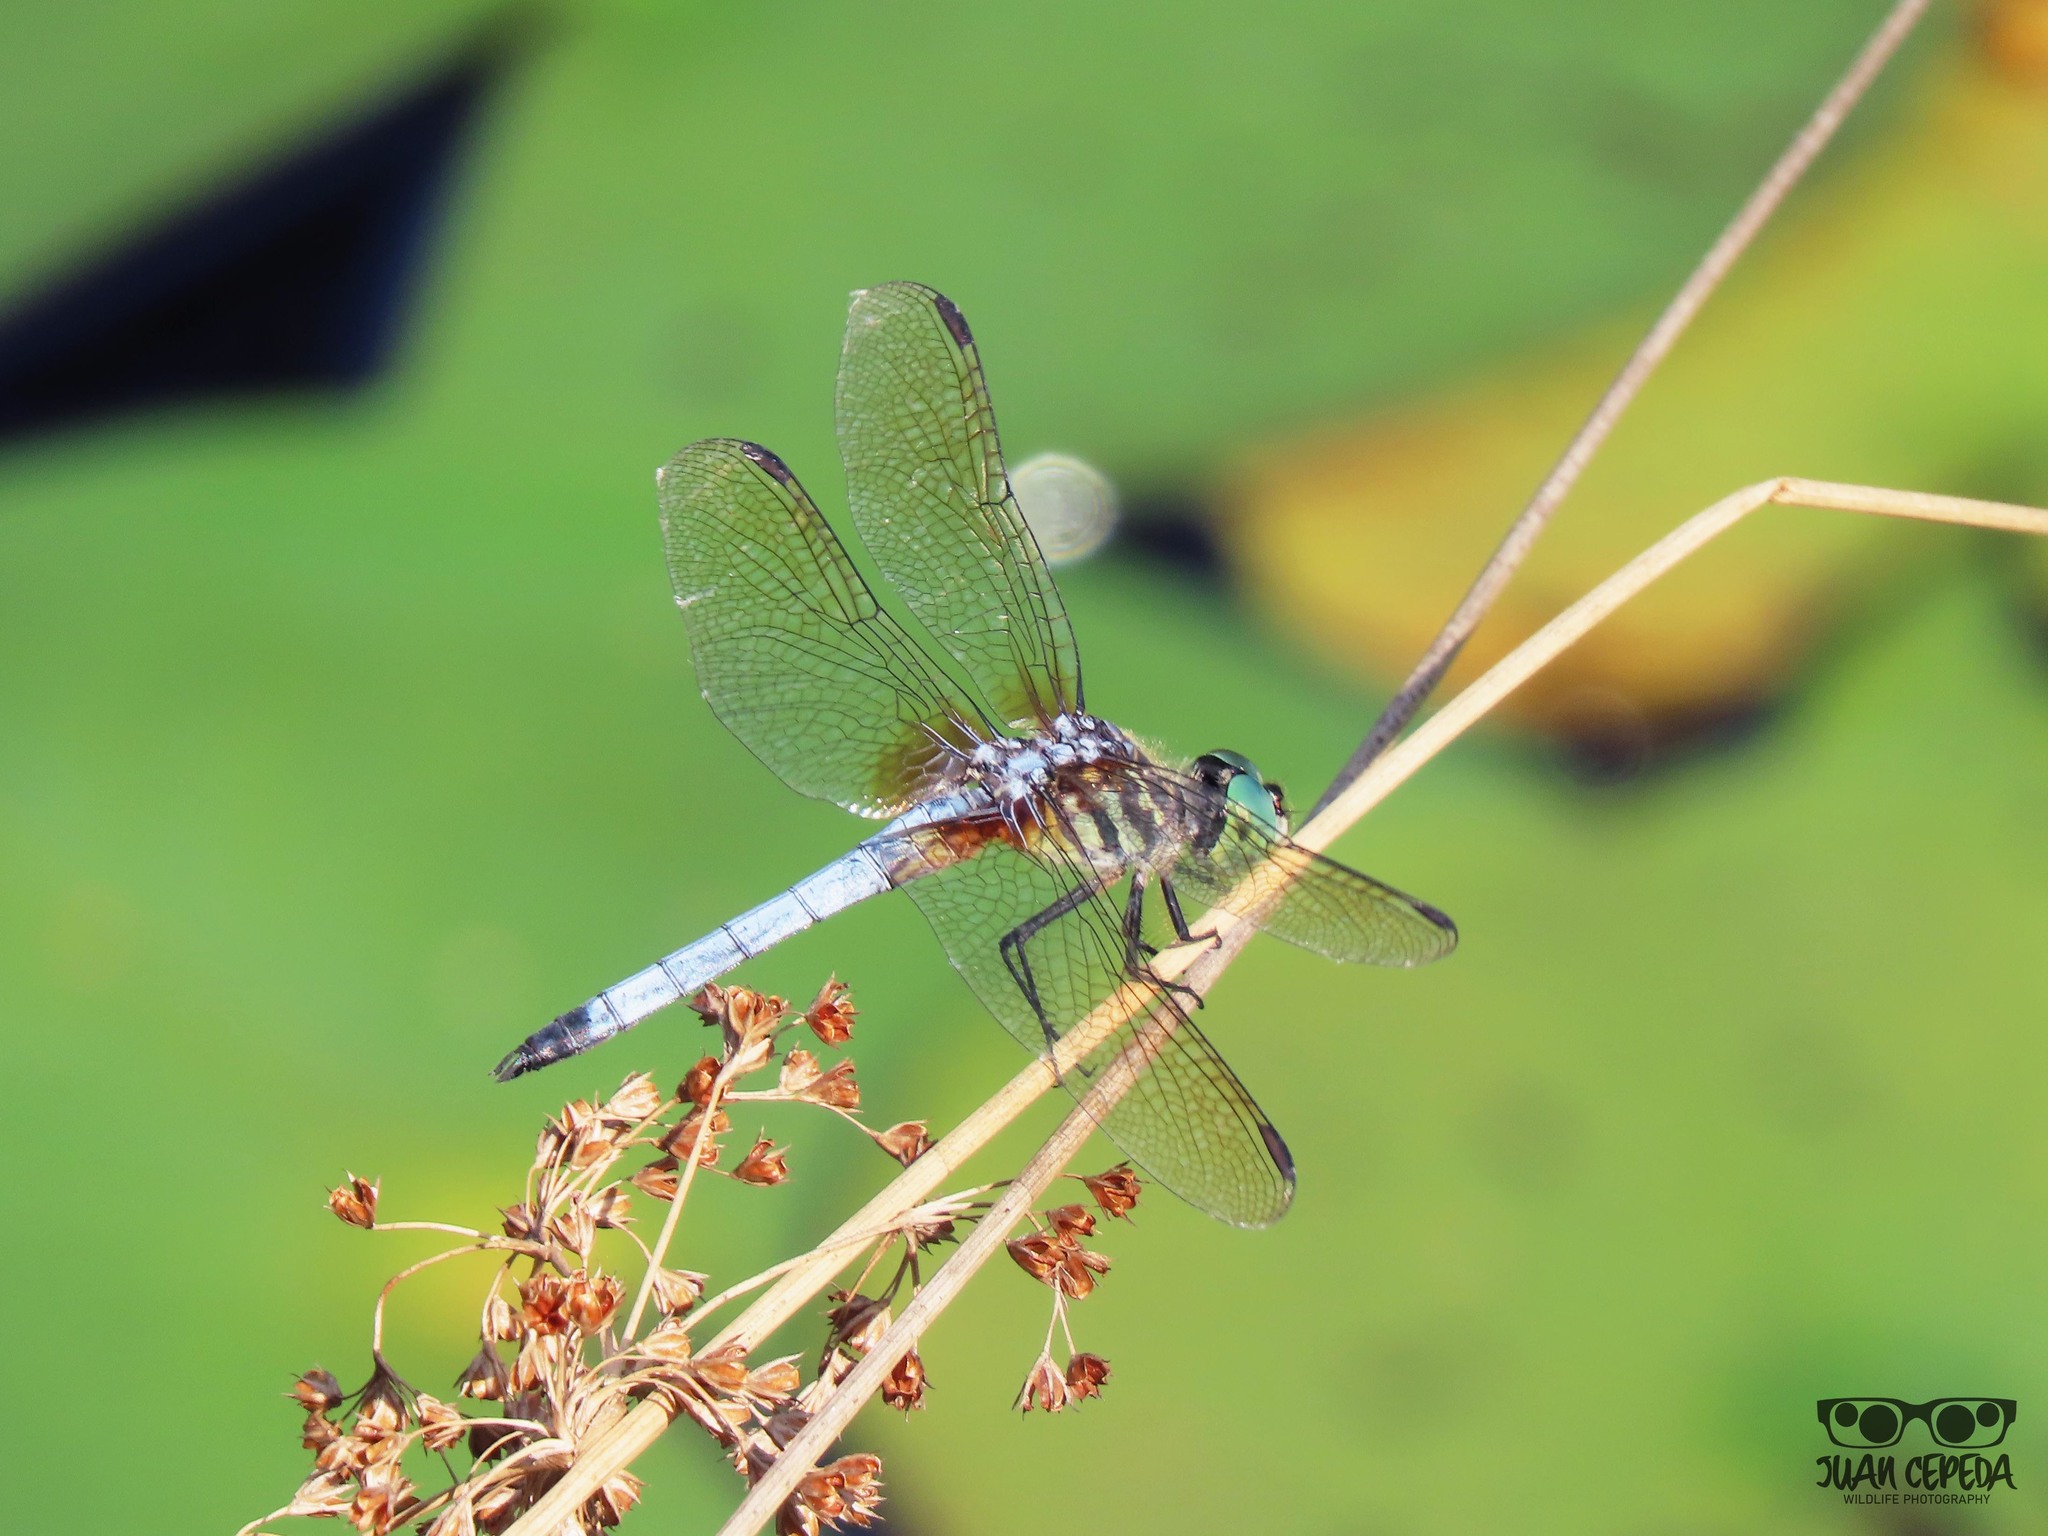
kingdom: Animalia
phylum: Arthropoda
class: Insecta
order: Odonata
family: Libellulidae
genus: Pachydiplax
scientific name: Pachydiplax longipennis
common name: Blue dasher
